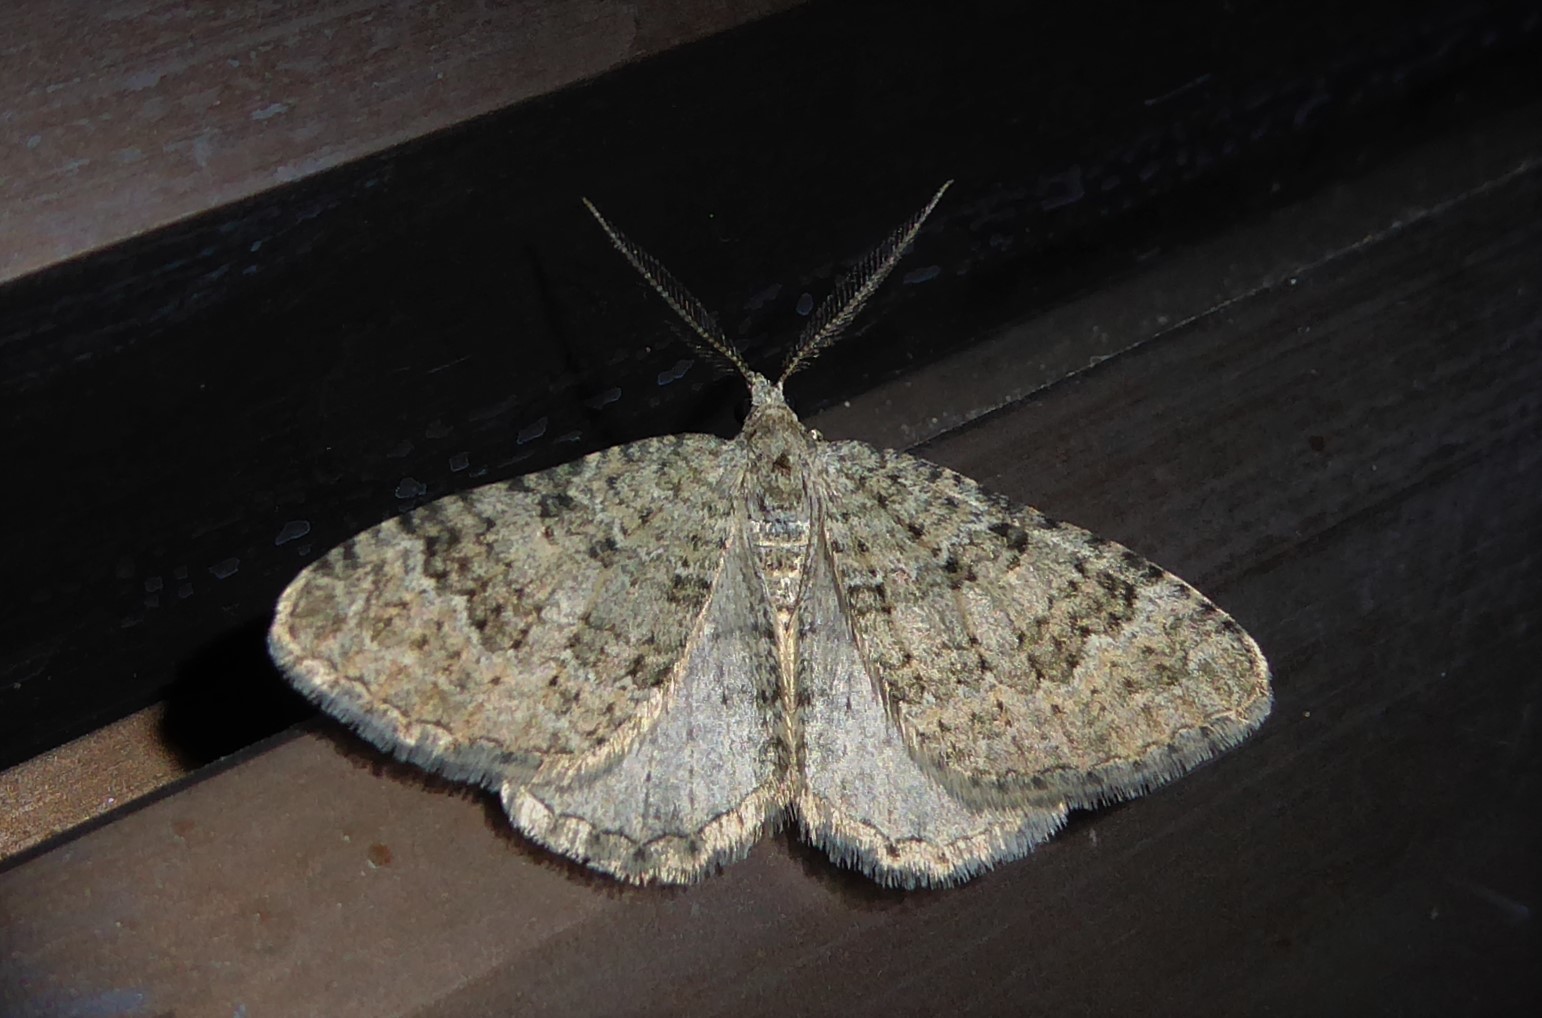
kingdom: Animalia
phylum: Arthropoda
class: Insecta
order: Lepidoptera
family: Geometridae
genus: Helastia
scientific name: Helastia corcularia
